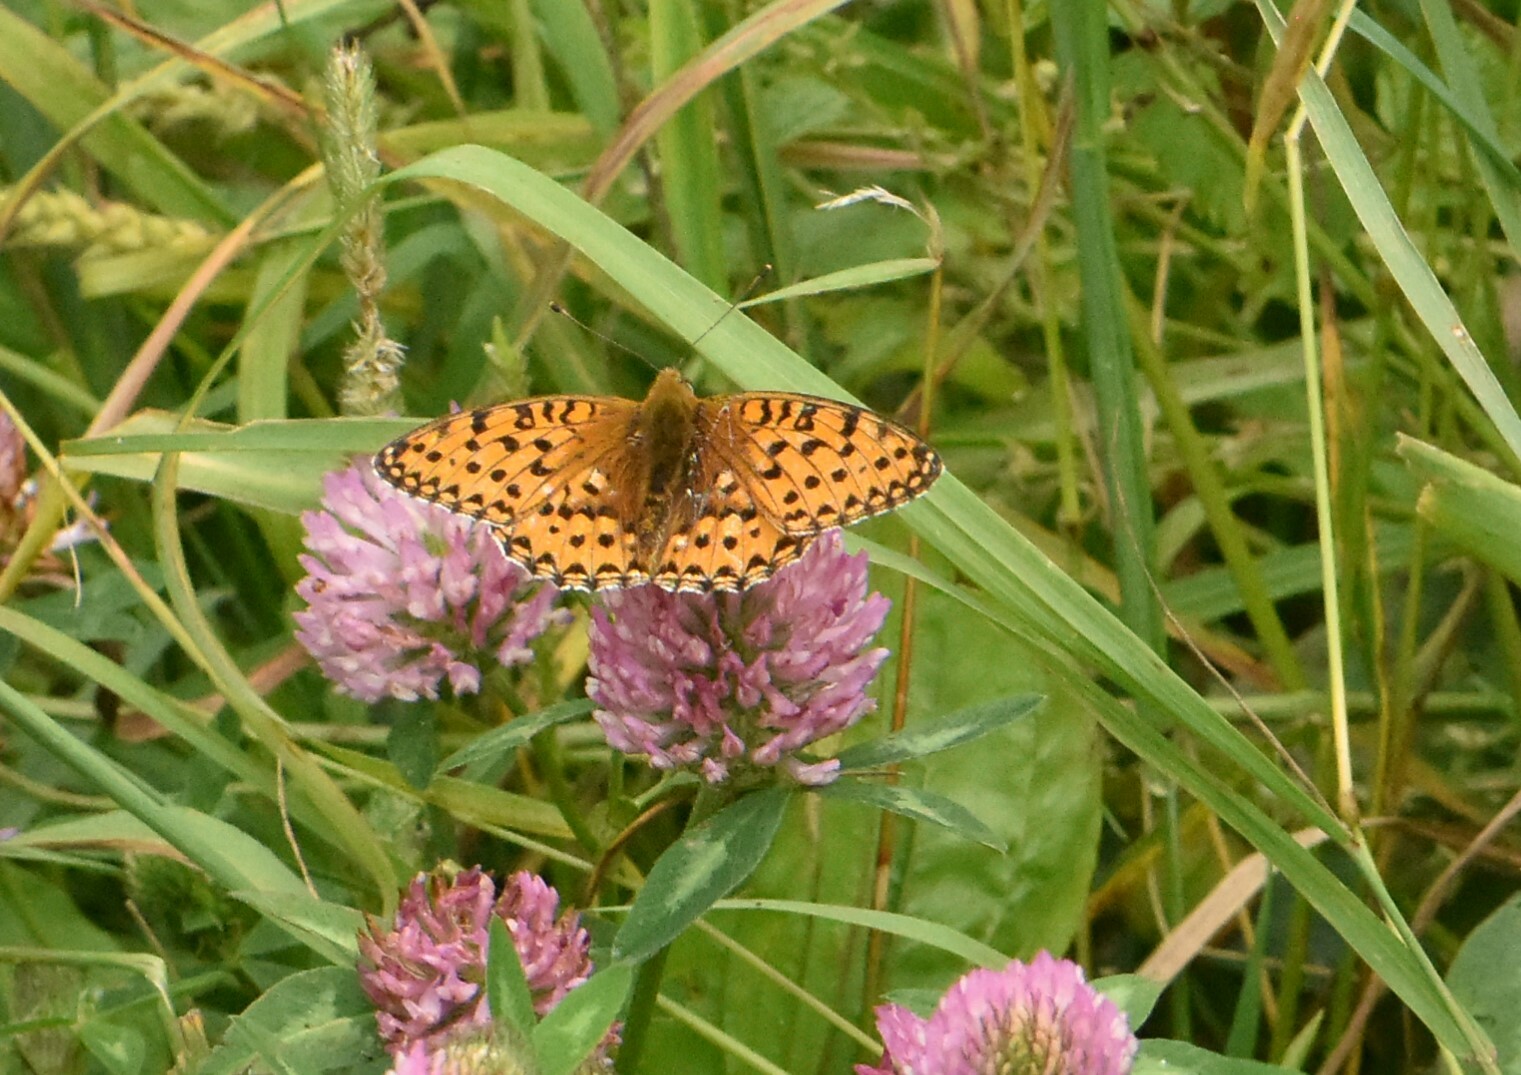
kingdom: Animalia
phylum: Arthropoda
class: Insecta
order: Lepidoptera
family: Nymphalidae
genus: Speyeria
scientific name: Speyeria aglaja
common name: Dark green fritillary
